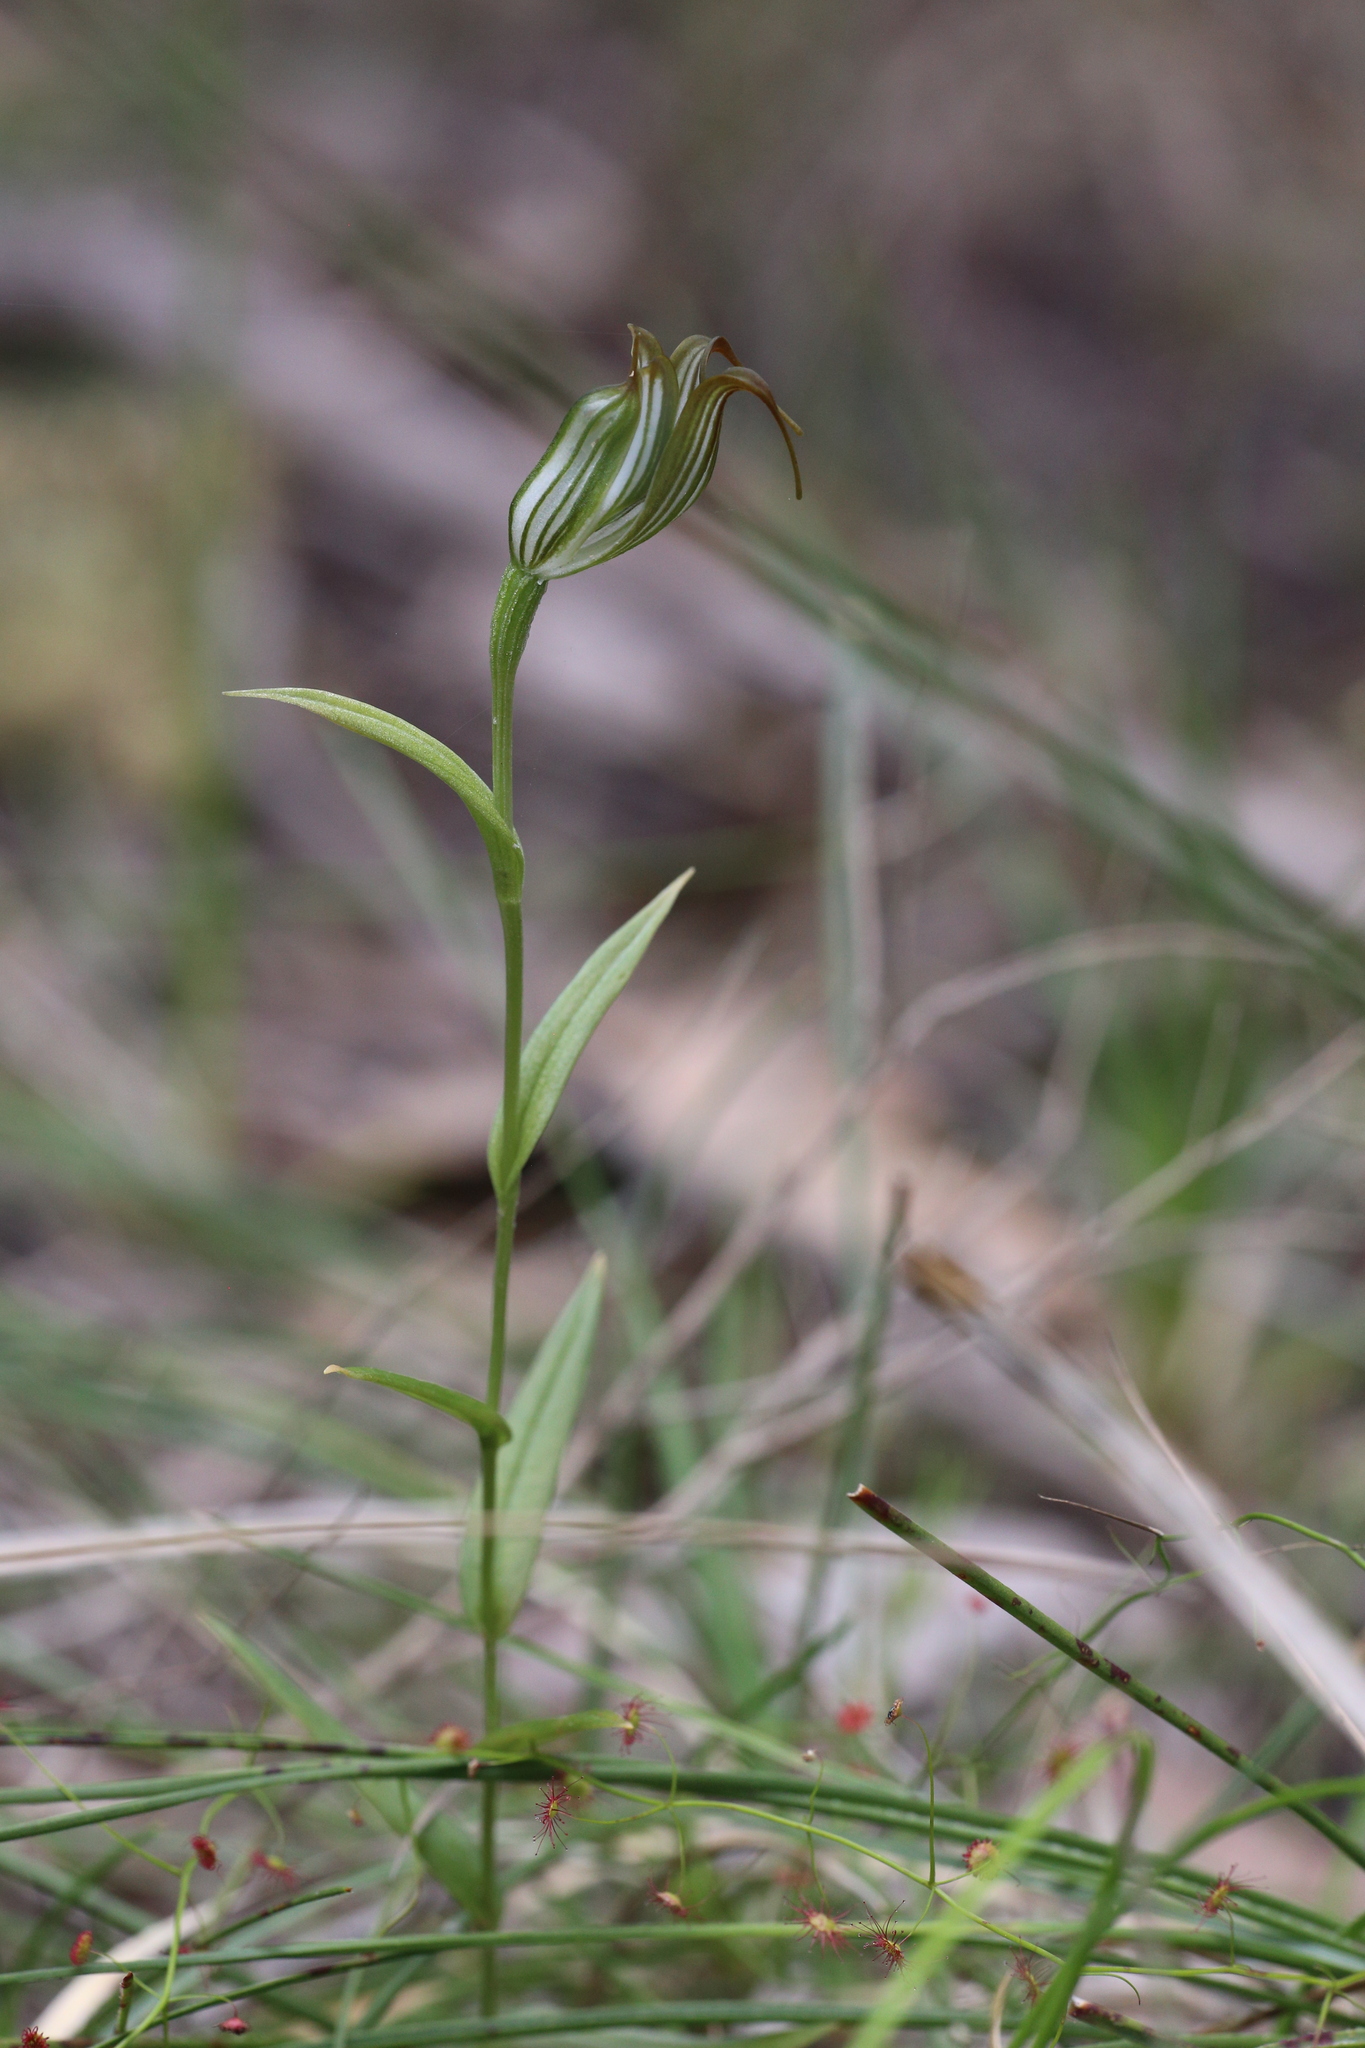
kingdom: Plantae
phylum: Tracheophyta
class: Liliopsida
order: Asparagales
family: Orchidaceae
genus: Pterostylis
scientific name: Pterostylis recurva
